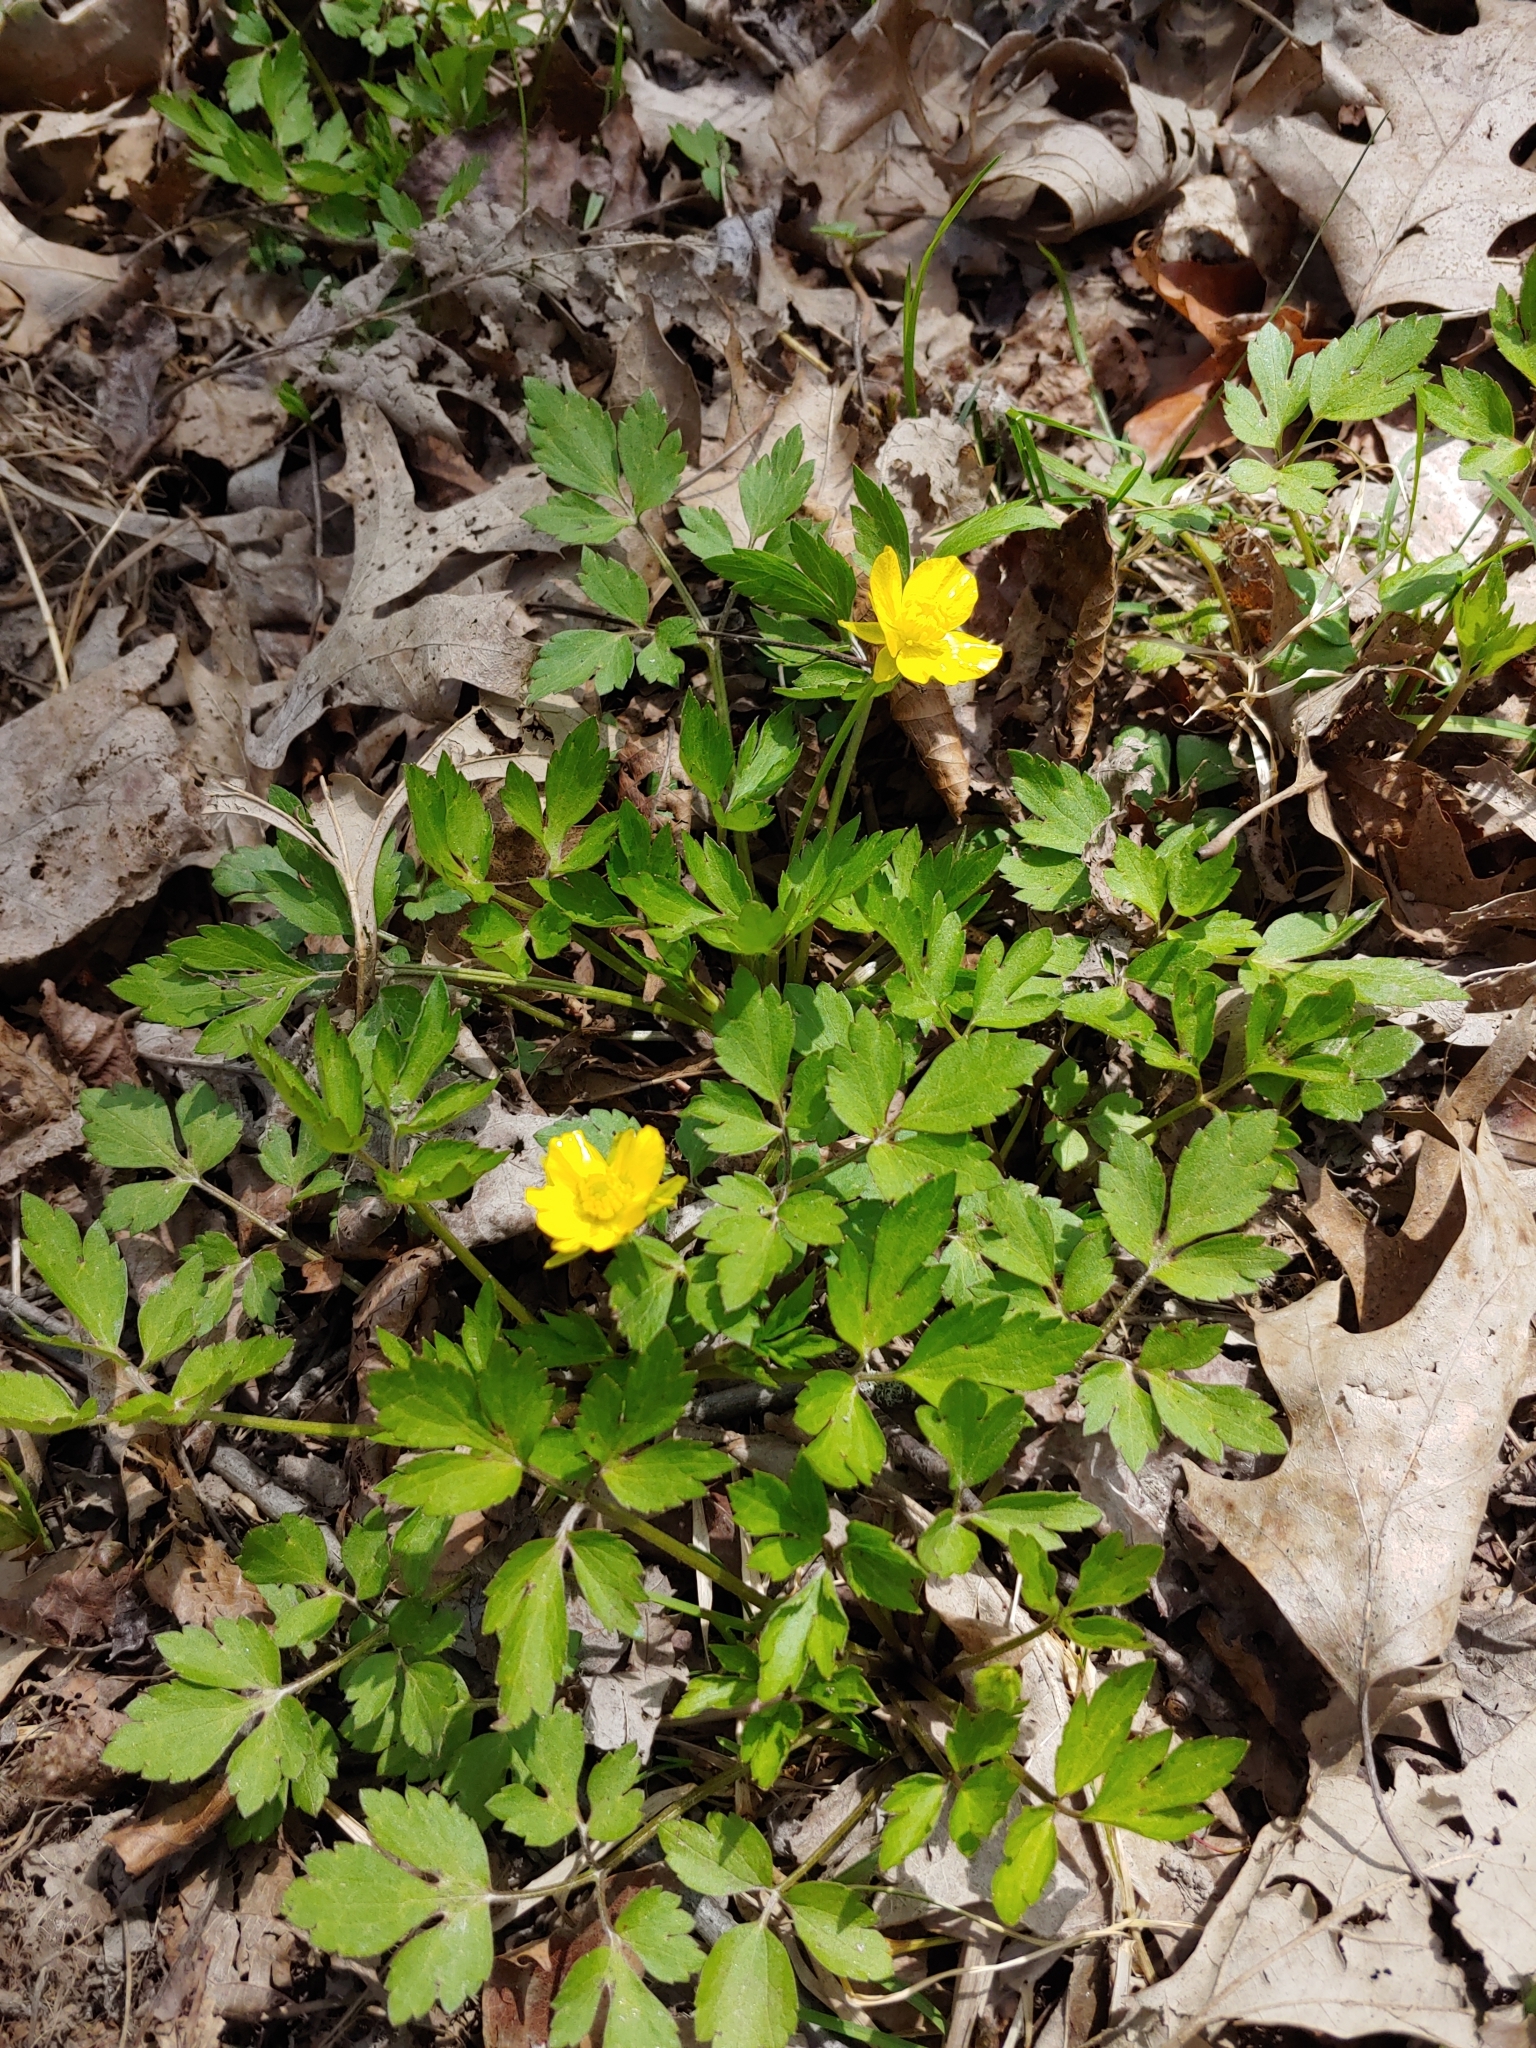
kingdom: Plantae
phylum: Tracheophyta
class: Magnoliopsida
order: Ranunculales
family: Ranunculaceae
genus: Ranunculus
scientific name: Ranunculus hispidus
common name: Bristly buttercup
